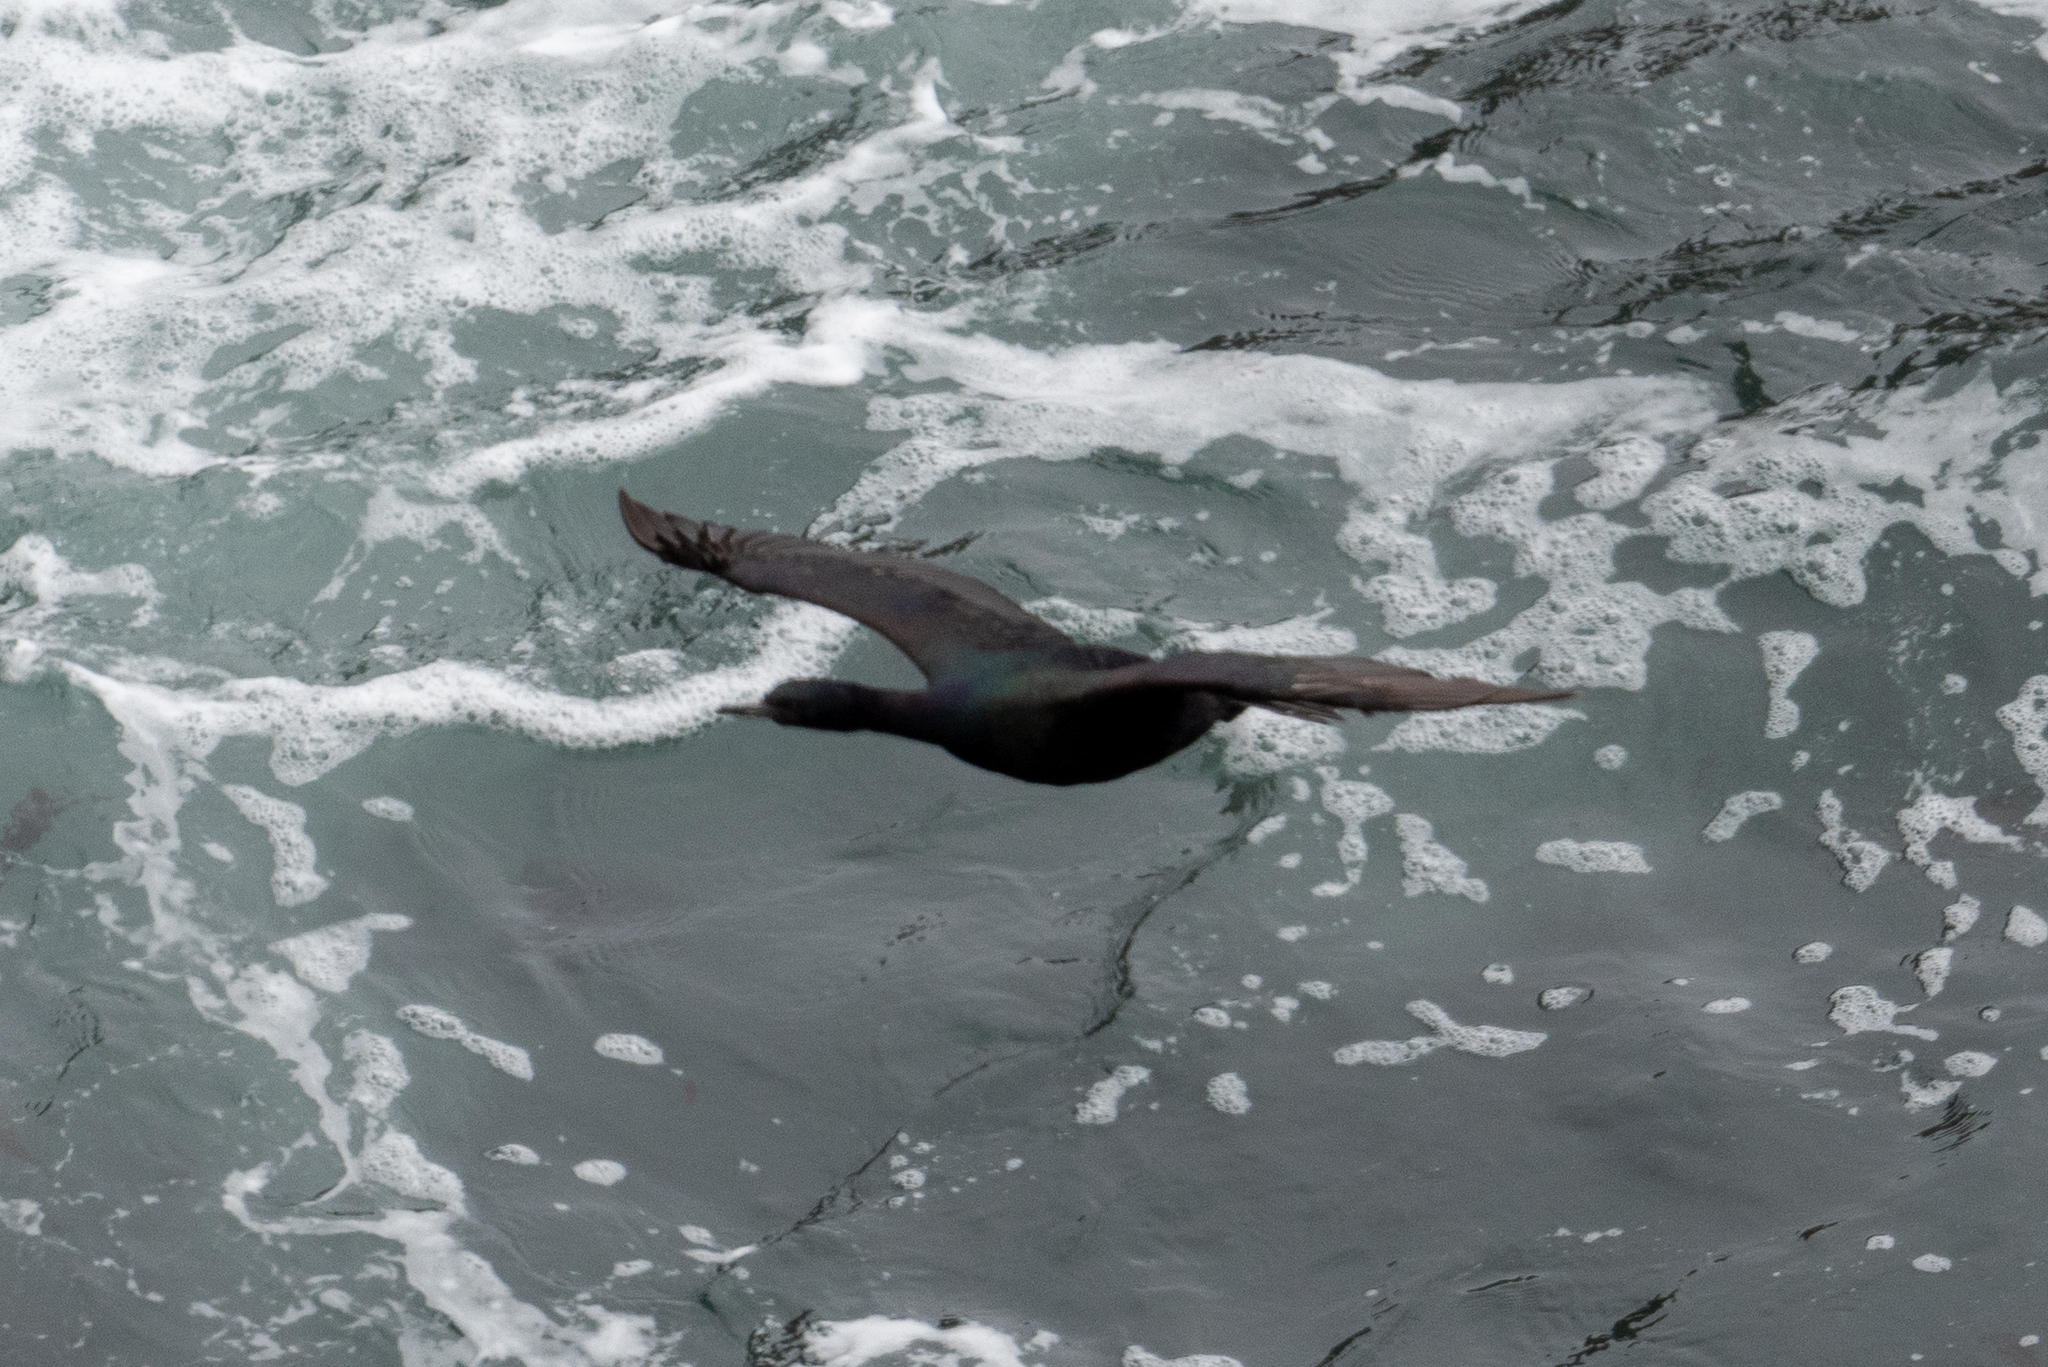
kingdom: Animalia
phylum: Chordata
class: Aves
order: Suliformes
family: Phalacrocoracidae
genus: Phalacrocorax
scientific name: Phalacrocorax pelagicus
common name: Pelagic cormorant
